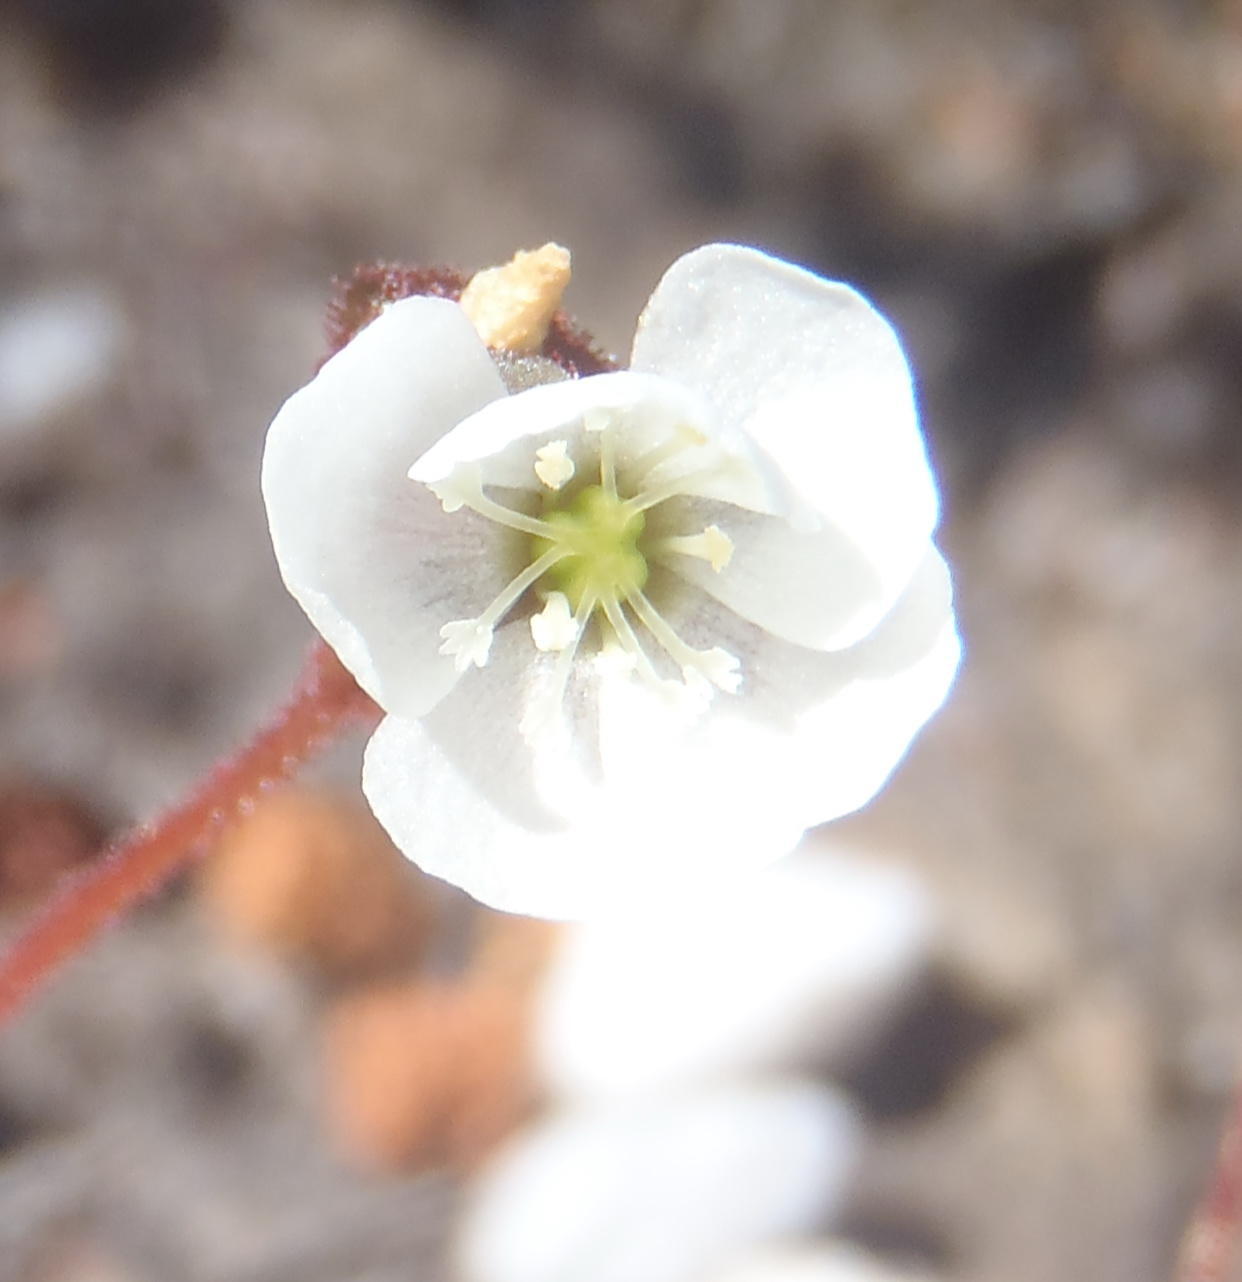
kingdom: Plantae
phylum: Tracheophyta
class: Magnoliopsida
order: Caryophyllales
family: Droseraceae
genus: Drosera
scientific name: Drosera trinervia
